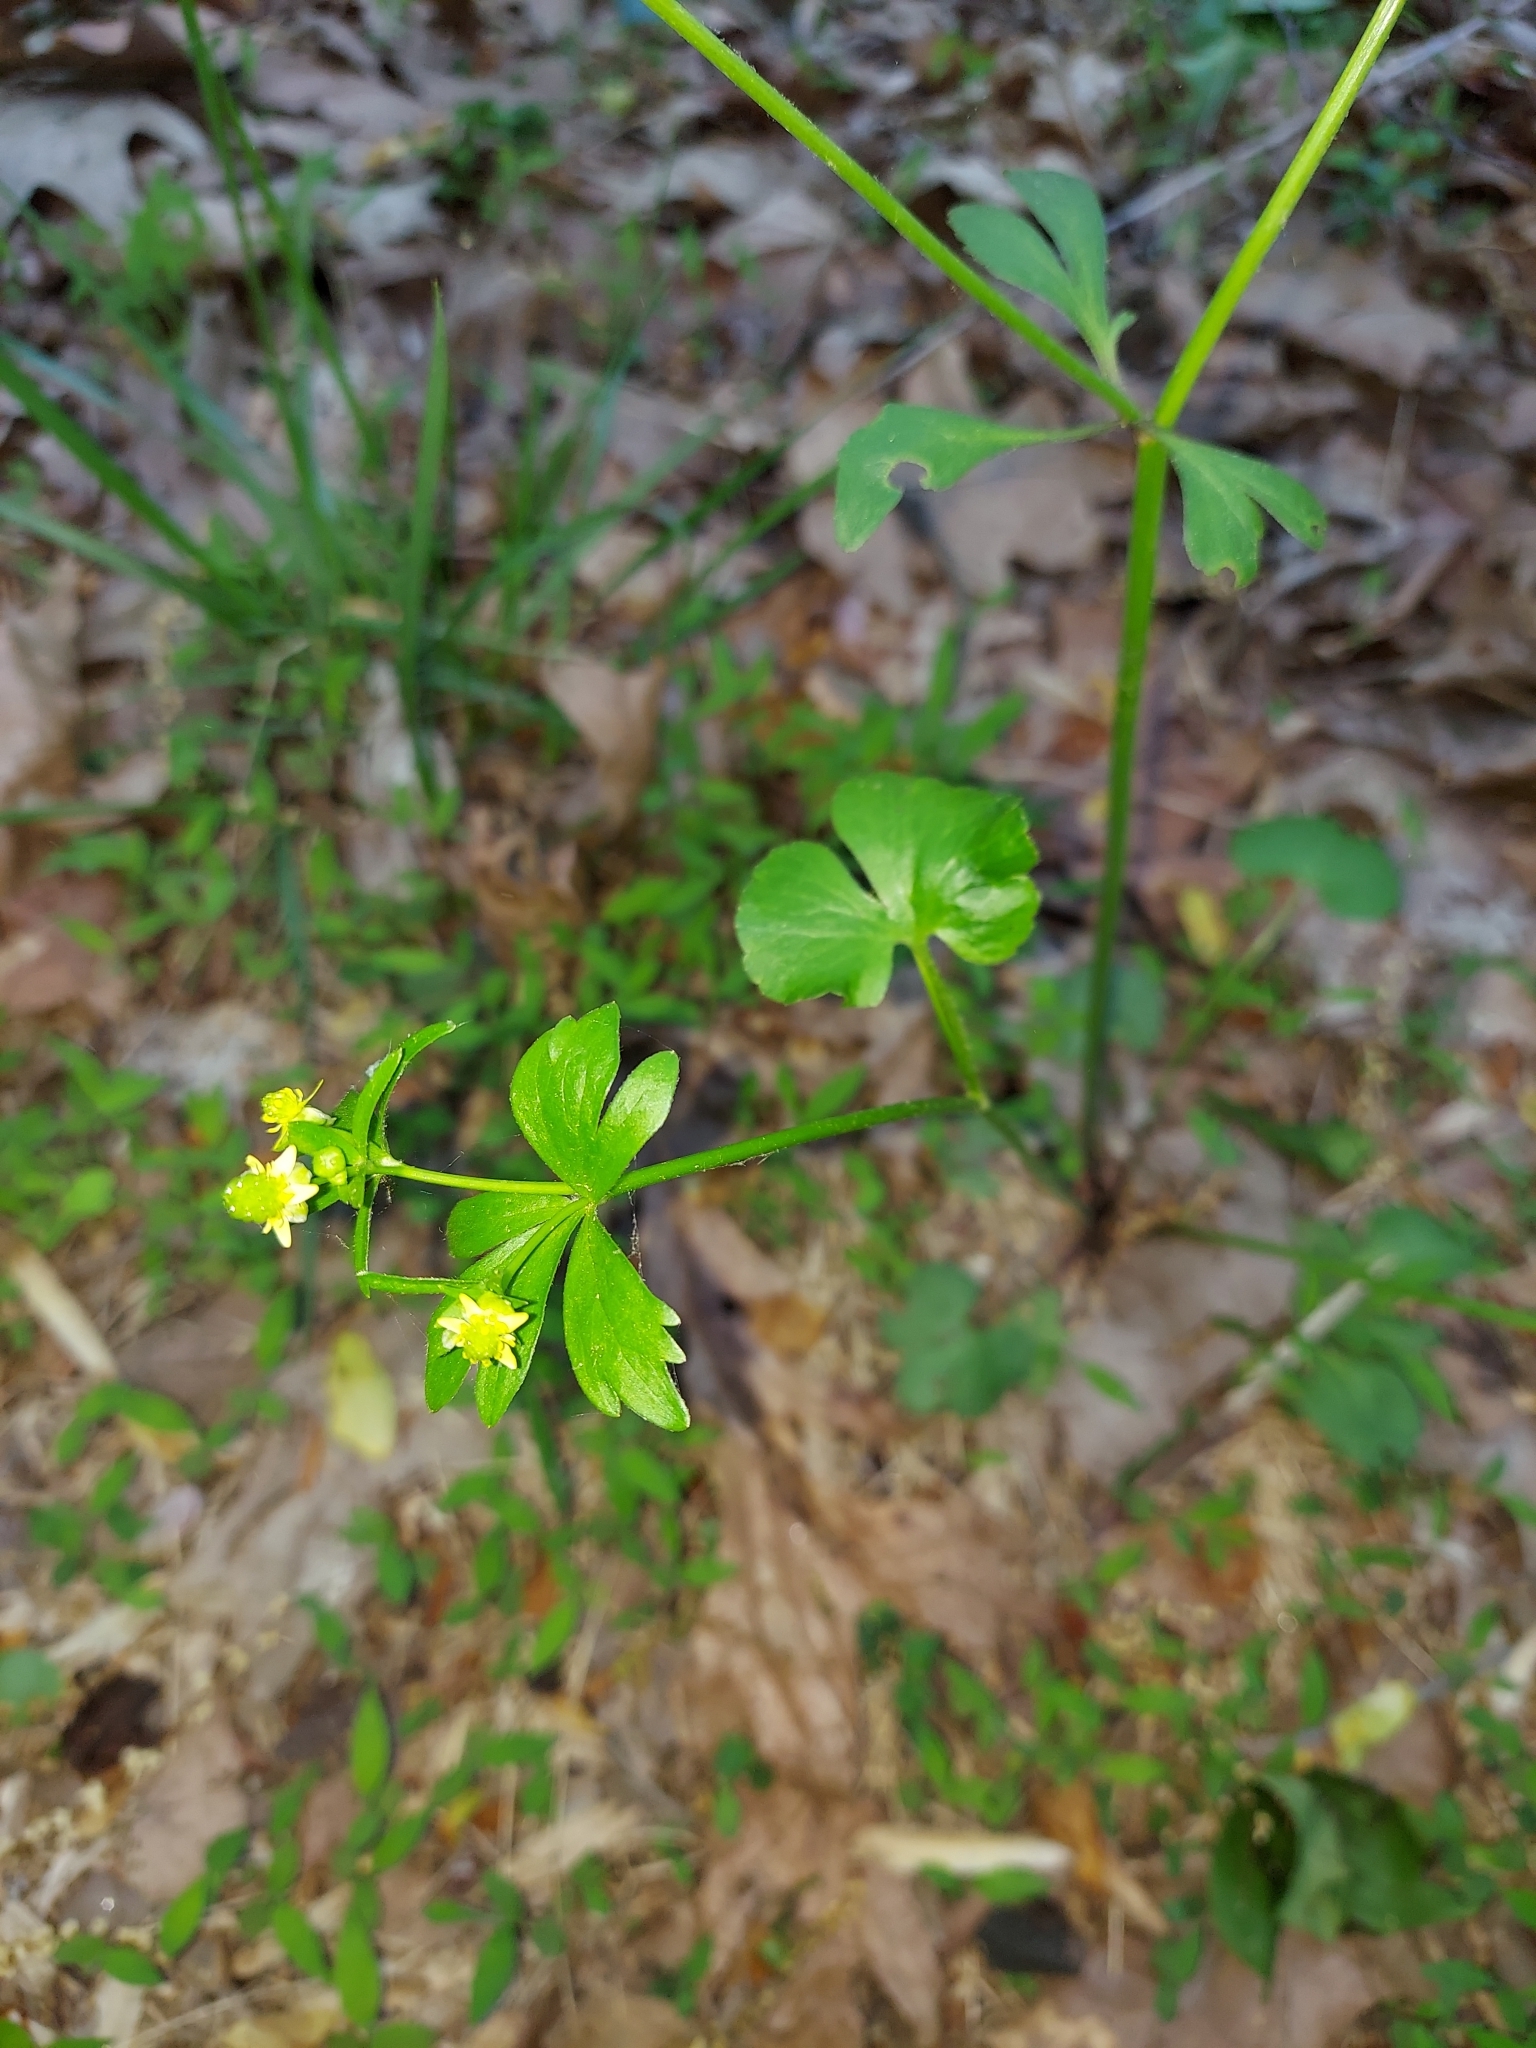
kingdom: Plantae
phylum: Tracheophyta
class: Magnoliopsida
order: Ranunculales
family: Ranunculaceae
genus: Ranunculus
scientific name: Ranunculus abortivus
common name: Early wood buttercup
